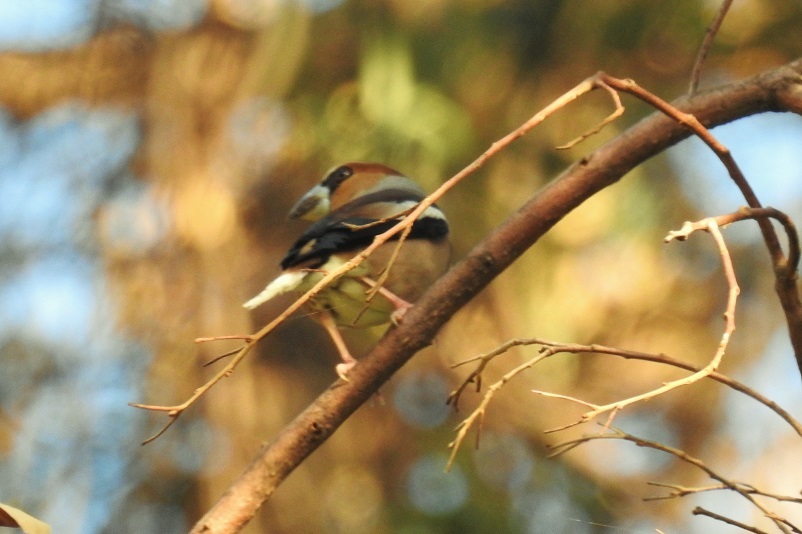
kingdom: Animalia
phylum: Chordata
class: Aves
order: Passeriformes
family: Fringillidae
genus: Coccothraustes
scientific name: Coccothraustes coccothraustes
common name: Hawfinch
